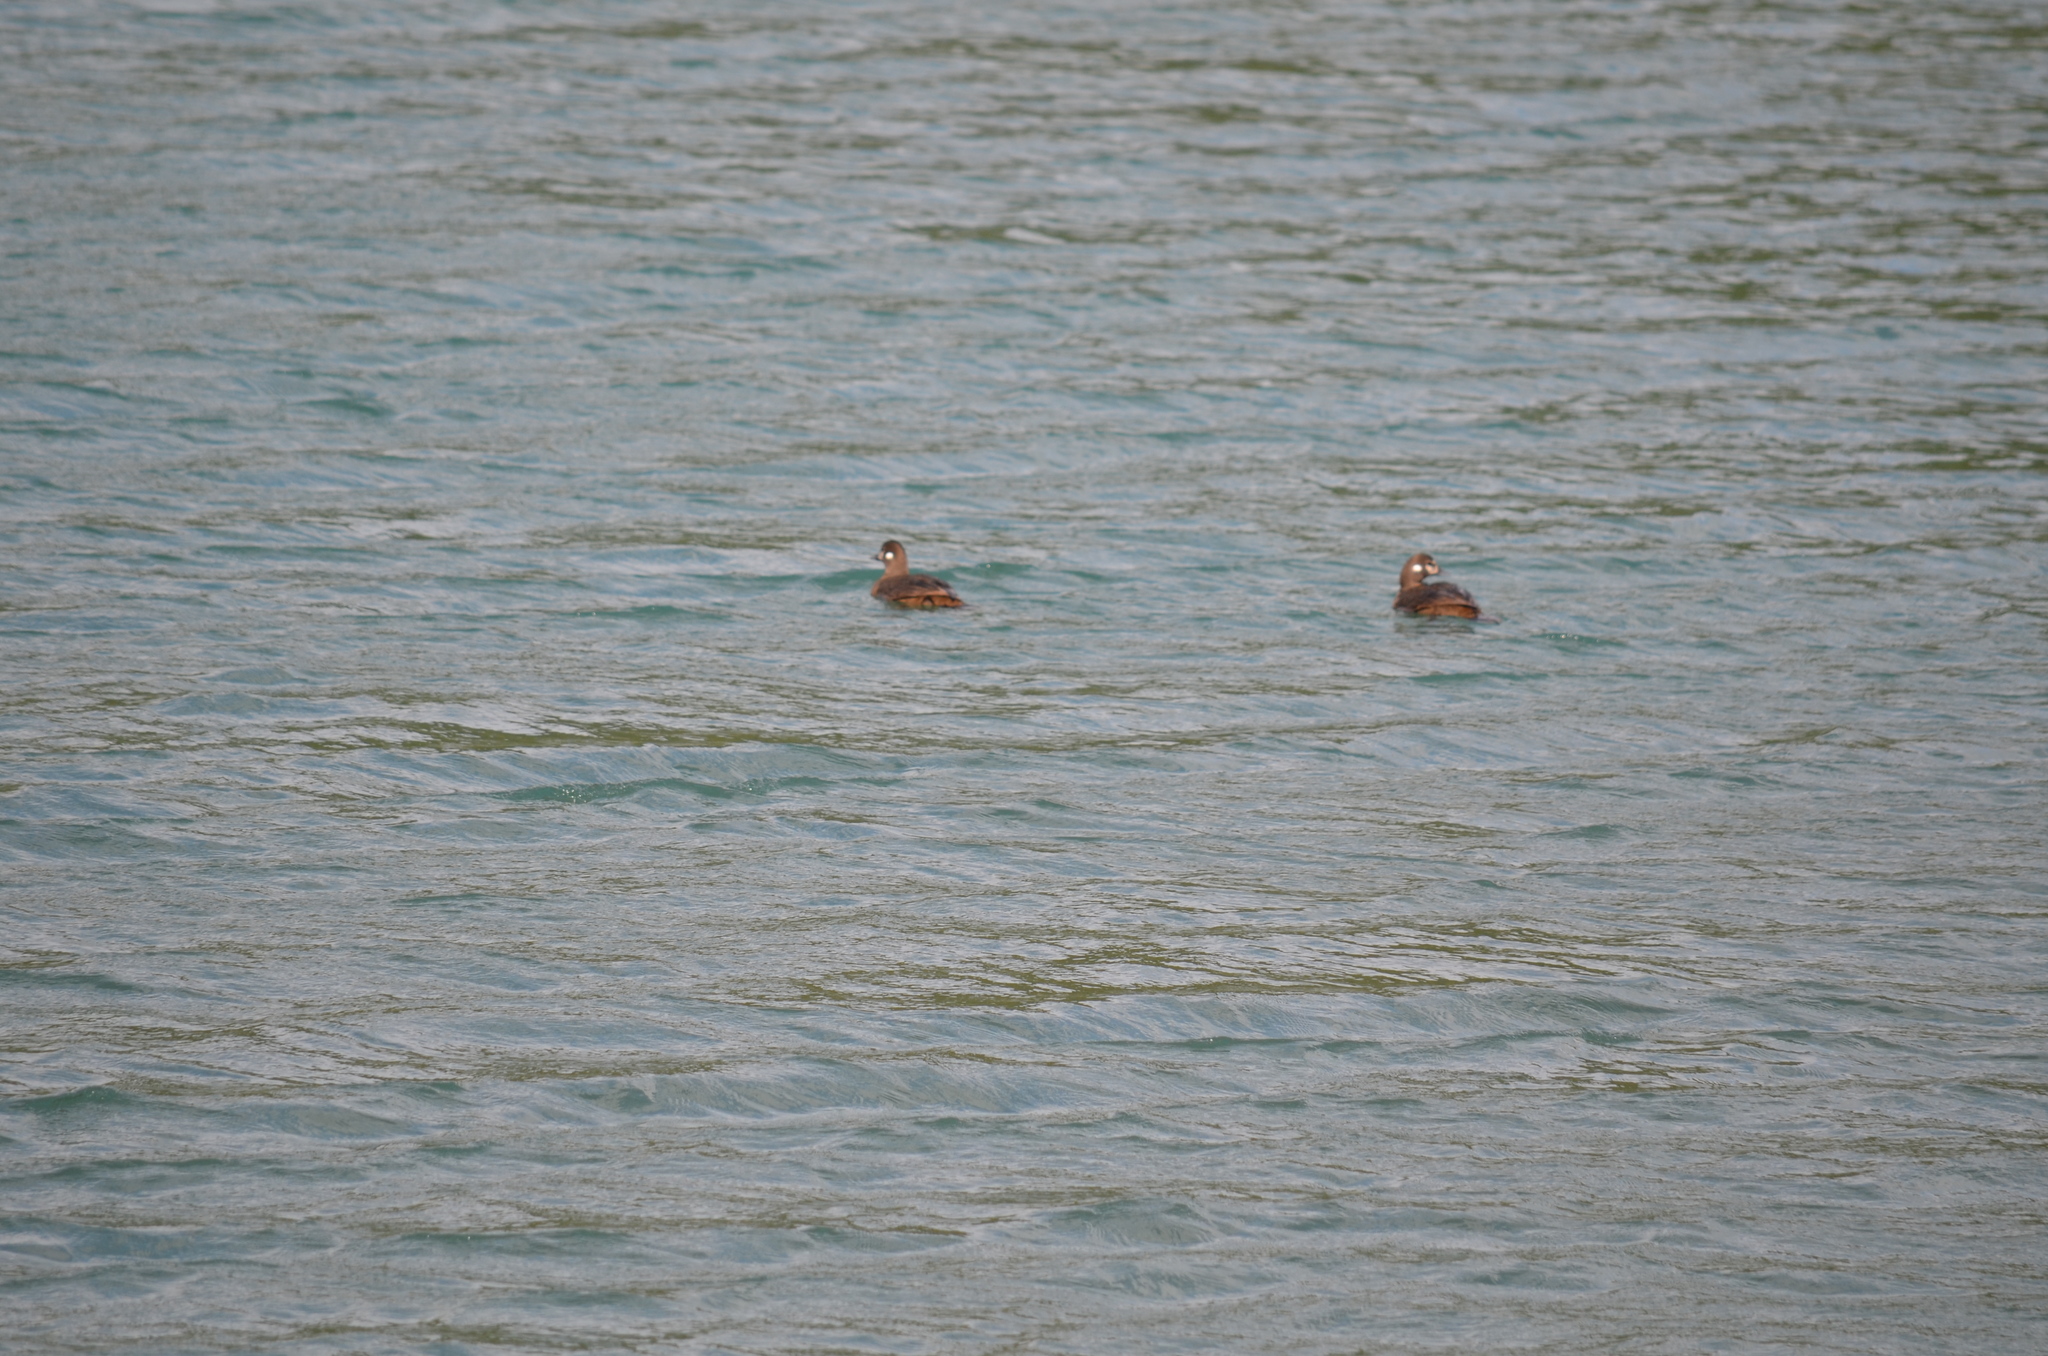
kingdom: Animalia
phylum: Chordata
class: Aves
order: Anseriformes
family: Anatidae
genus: Histrionicus
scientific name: Histrionicus histrionicus
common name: Harlequin duck
